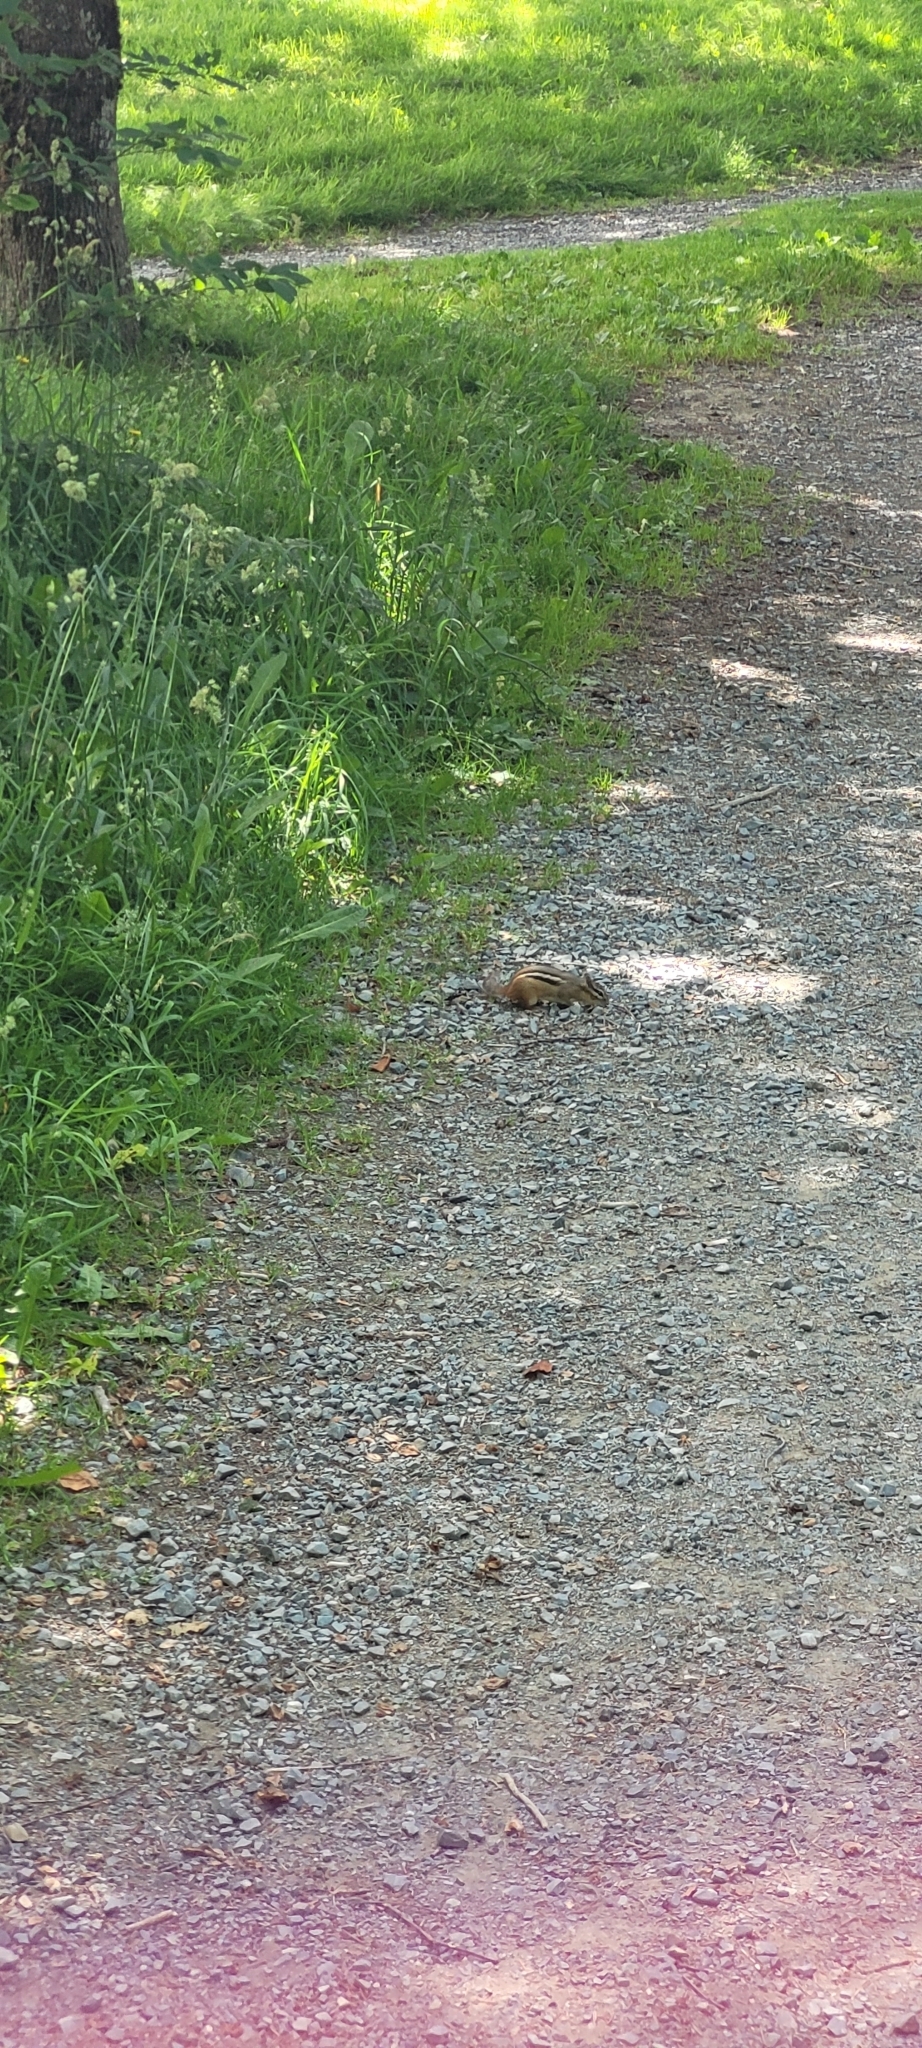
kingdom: Animalia
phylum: Chordata
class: Mammalia
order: Rodentia
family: Sciuridae
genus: Tamias
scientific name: Tamias striatus
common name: Eastern chipmunk
